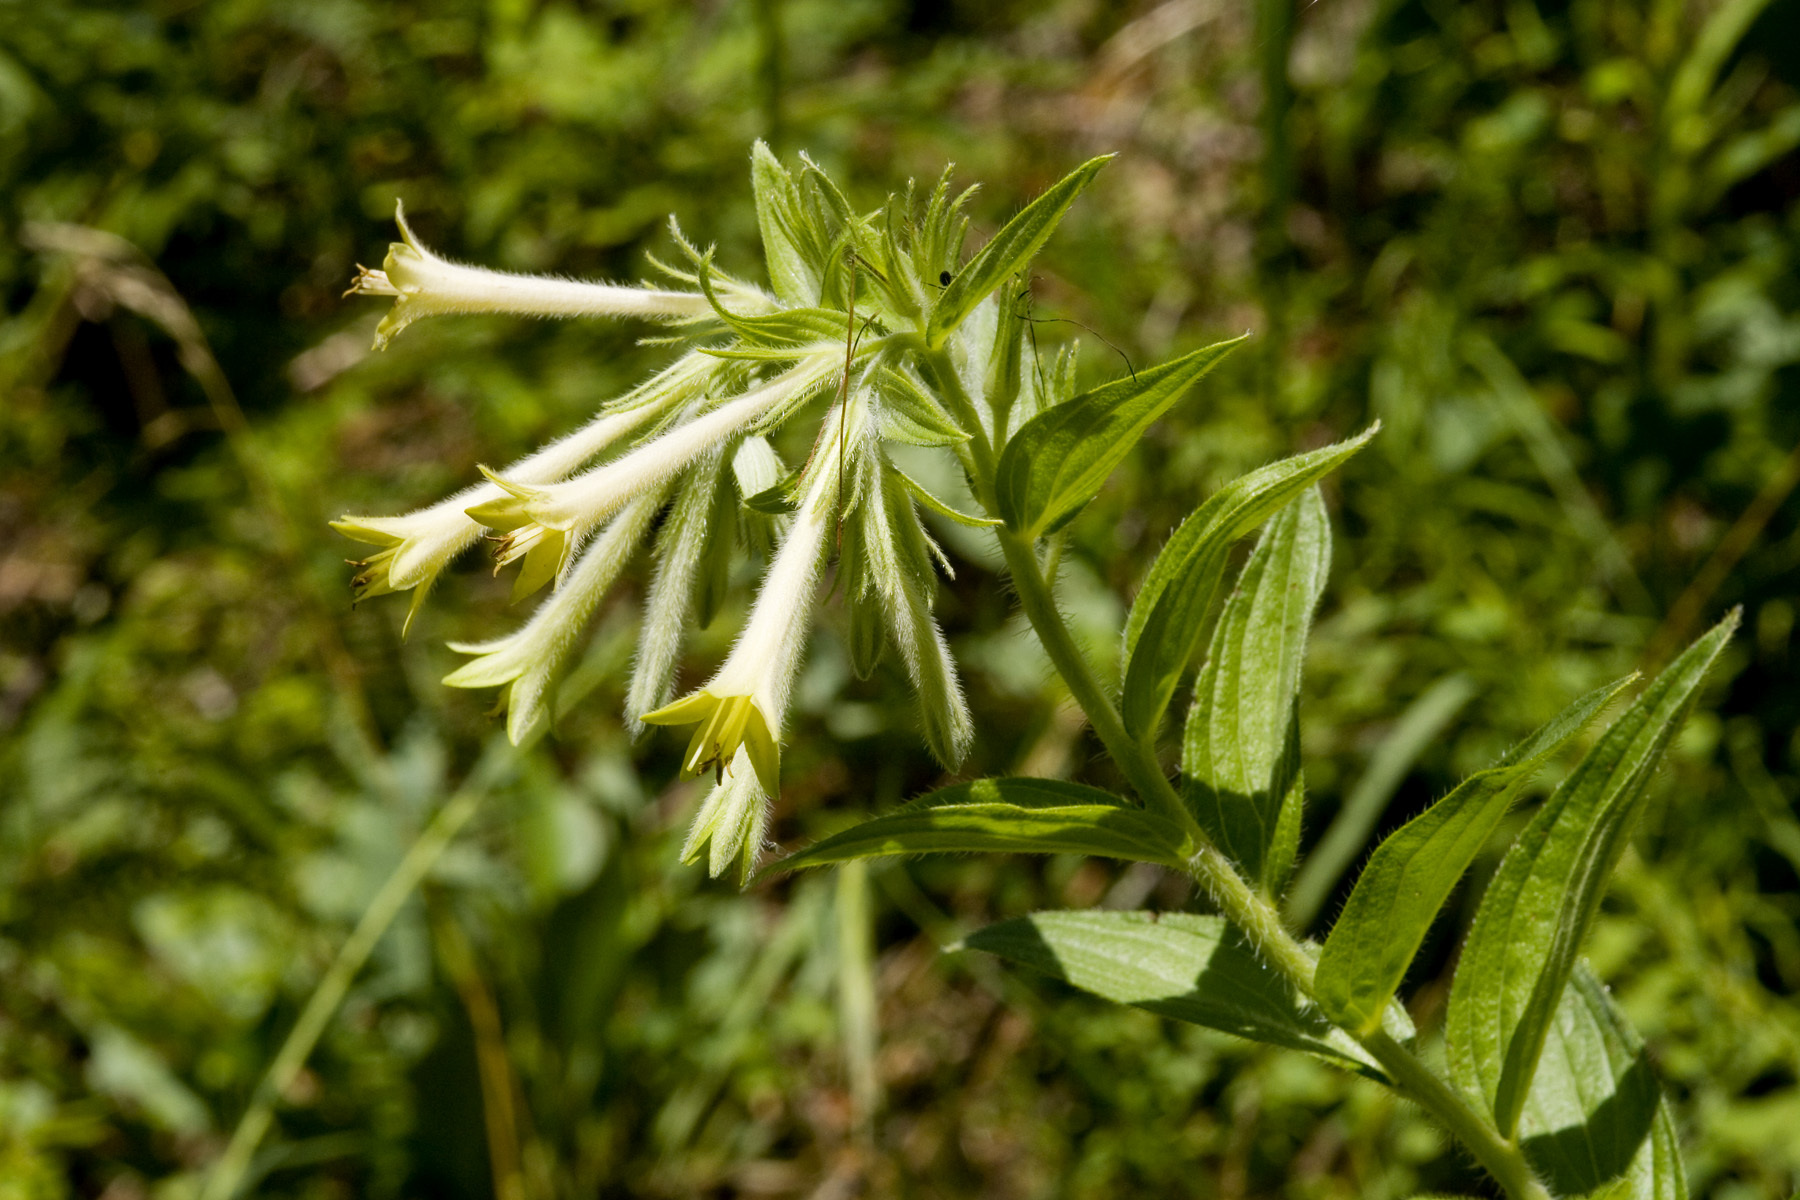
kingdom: Plantae
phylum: Tracheophyta
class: Magnoliopsida
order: Boraginales
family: Boraginaceae
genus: Lithospermum
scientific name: Lithospermum thurberi
